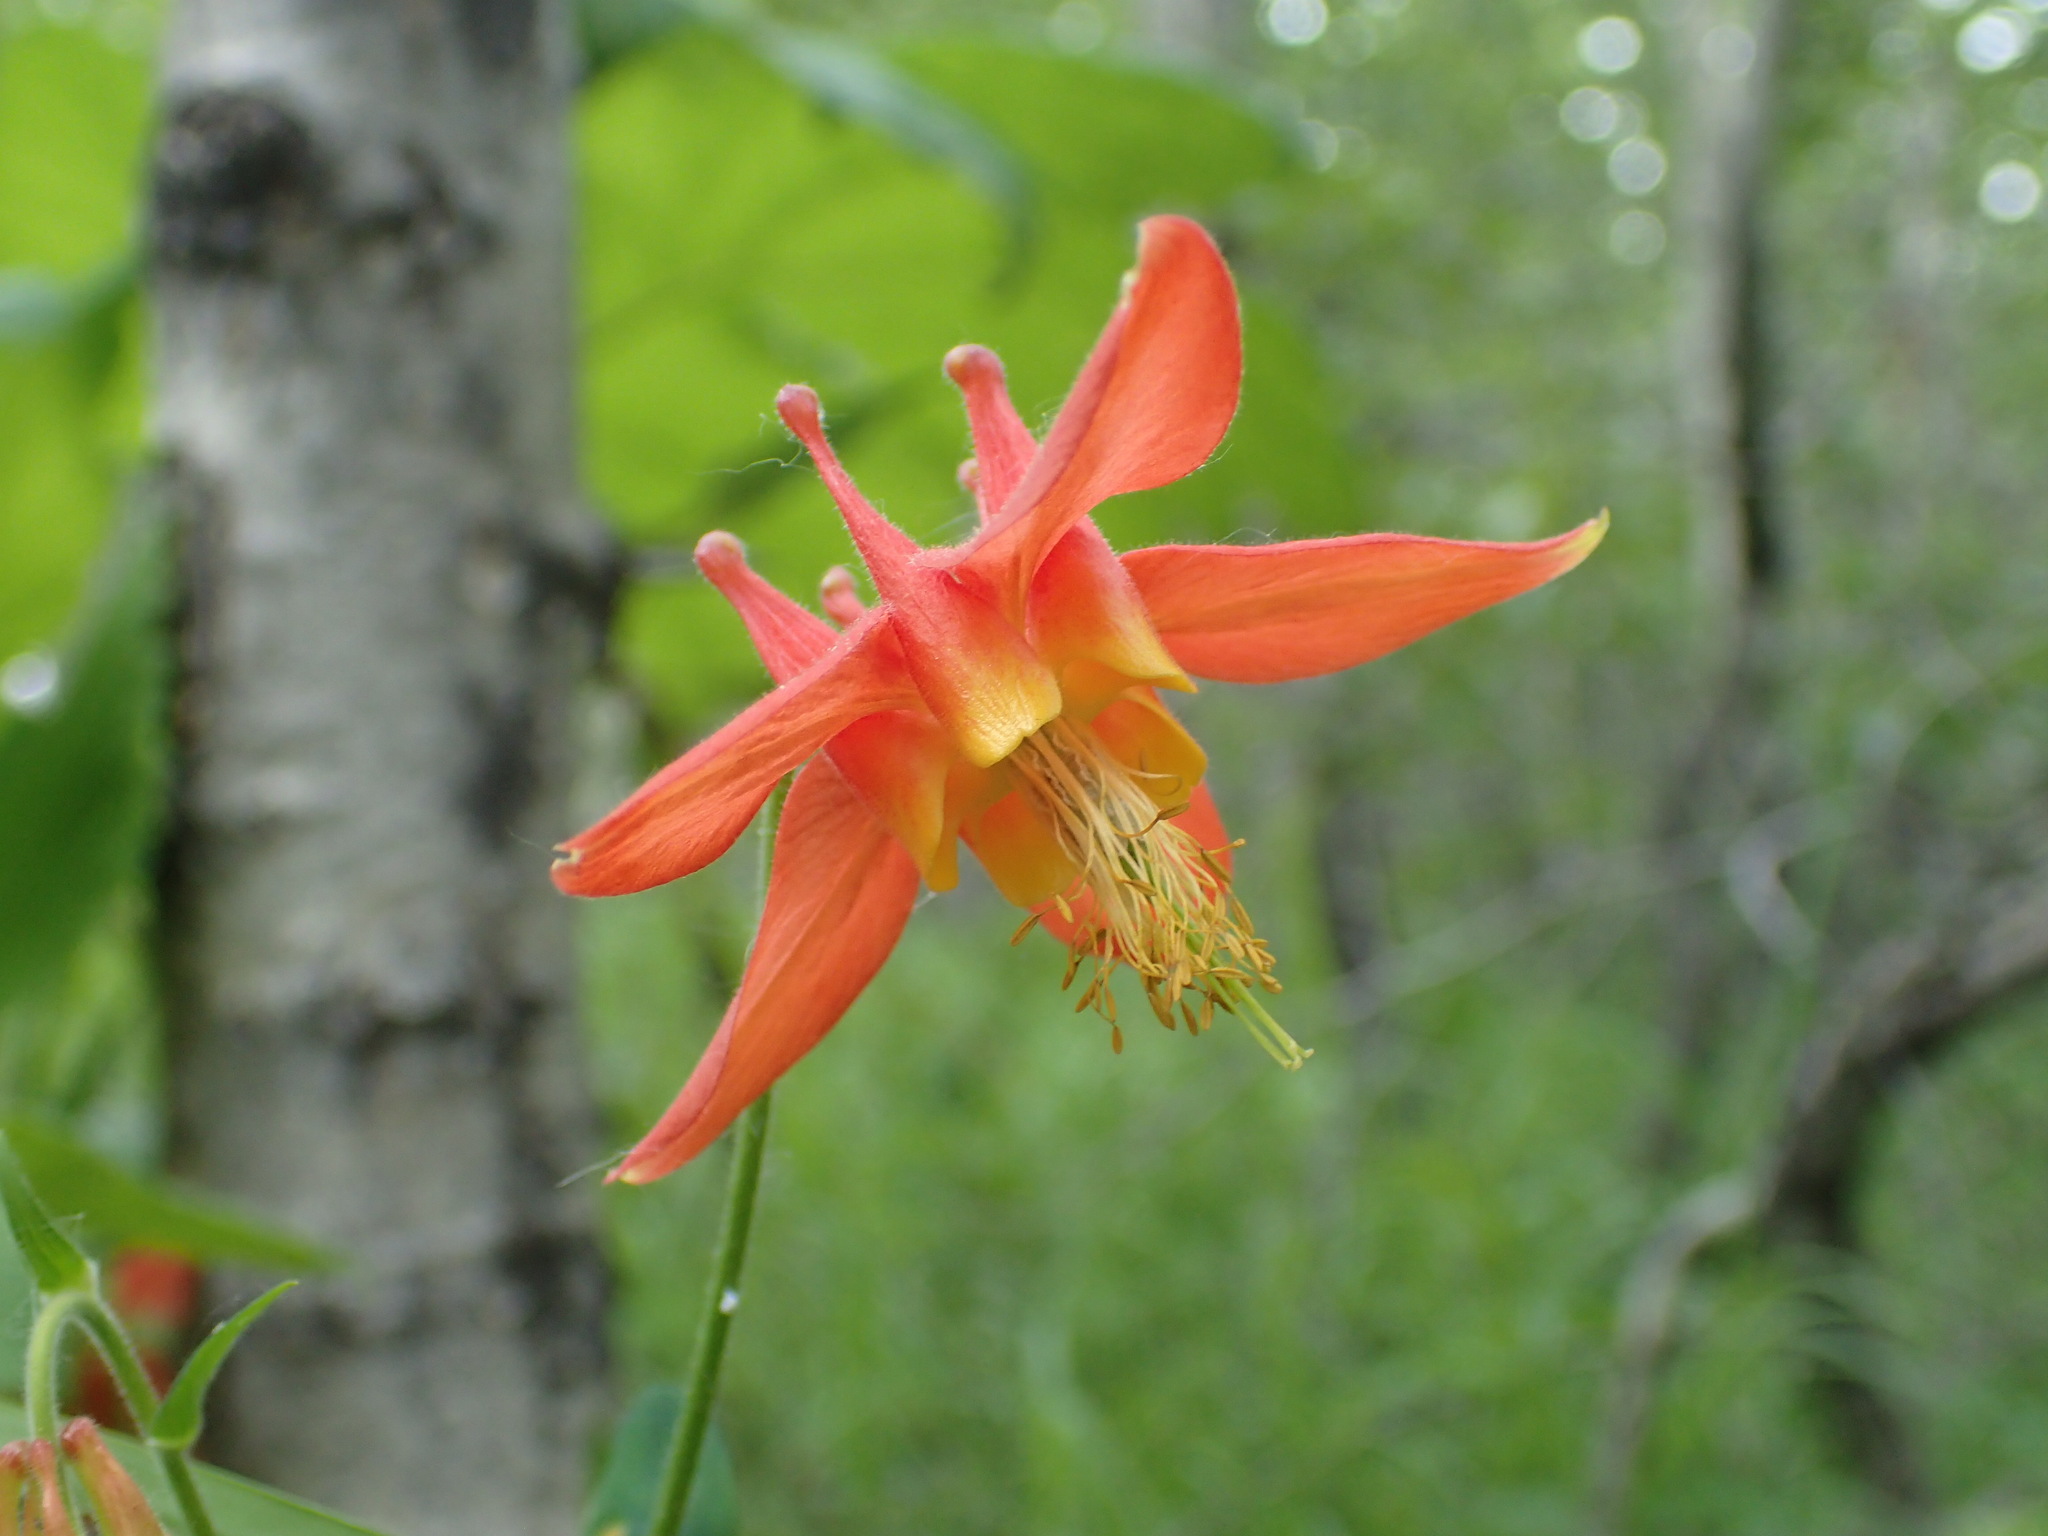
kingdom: Plantae
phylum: Tracheophyta
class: Magnoliopsida
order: Ranunculales
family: Ranunculaceae
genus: Aquilegia
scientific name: Aquilegia formosa
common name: Sitka columbine
